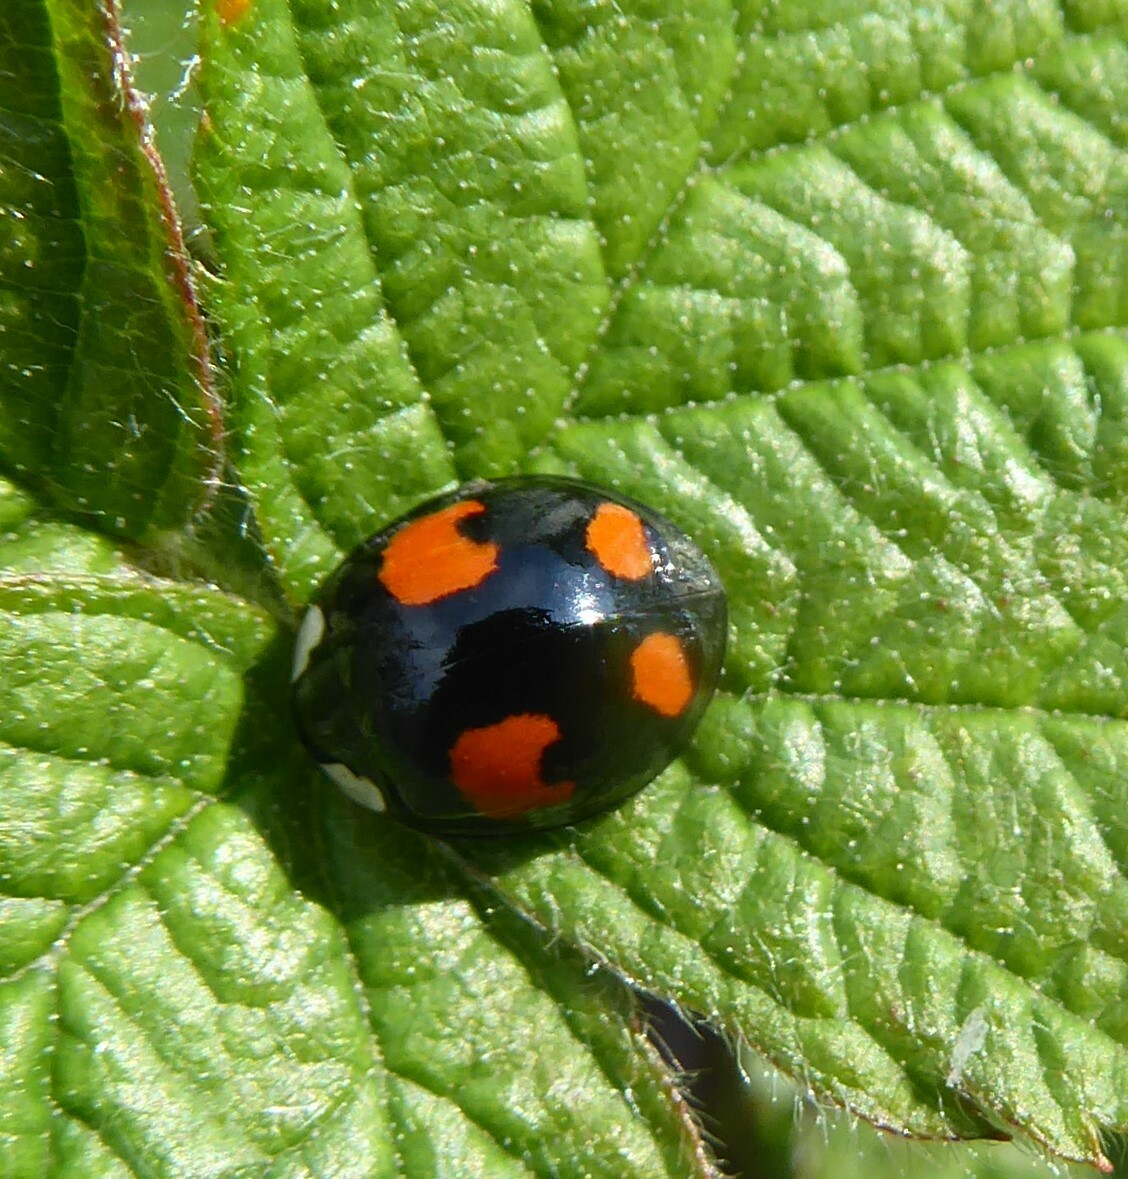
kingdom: Animalia
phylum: Arthropoda
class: Insecta
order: Coleoptera
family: Coccinellidae
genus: Harmonia
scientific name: Harmonia axyridis
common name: Harlequin ladybird
